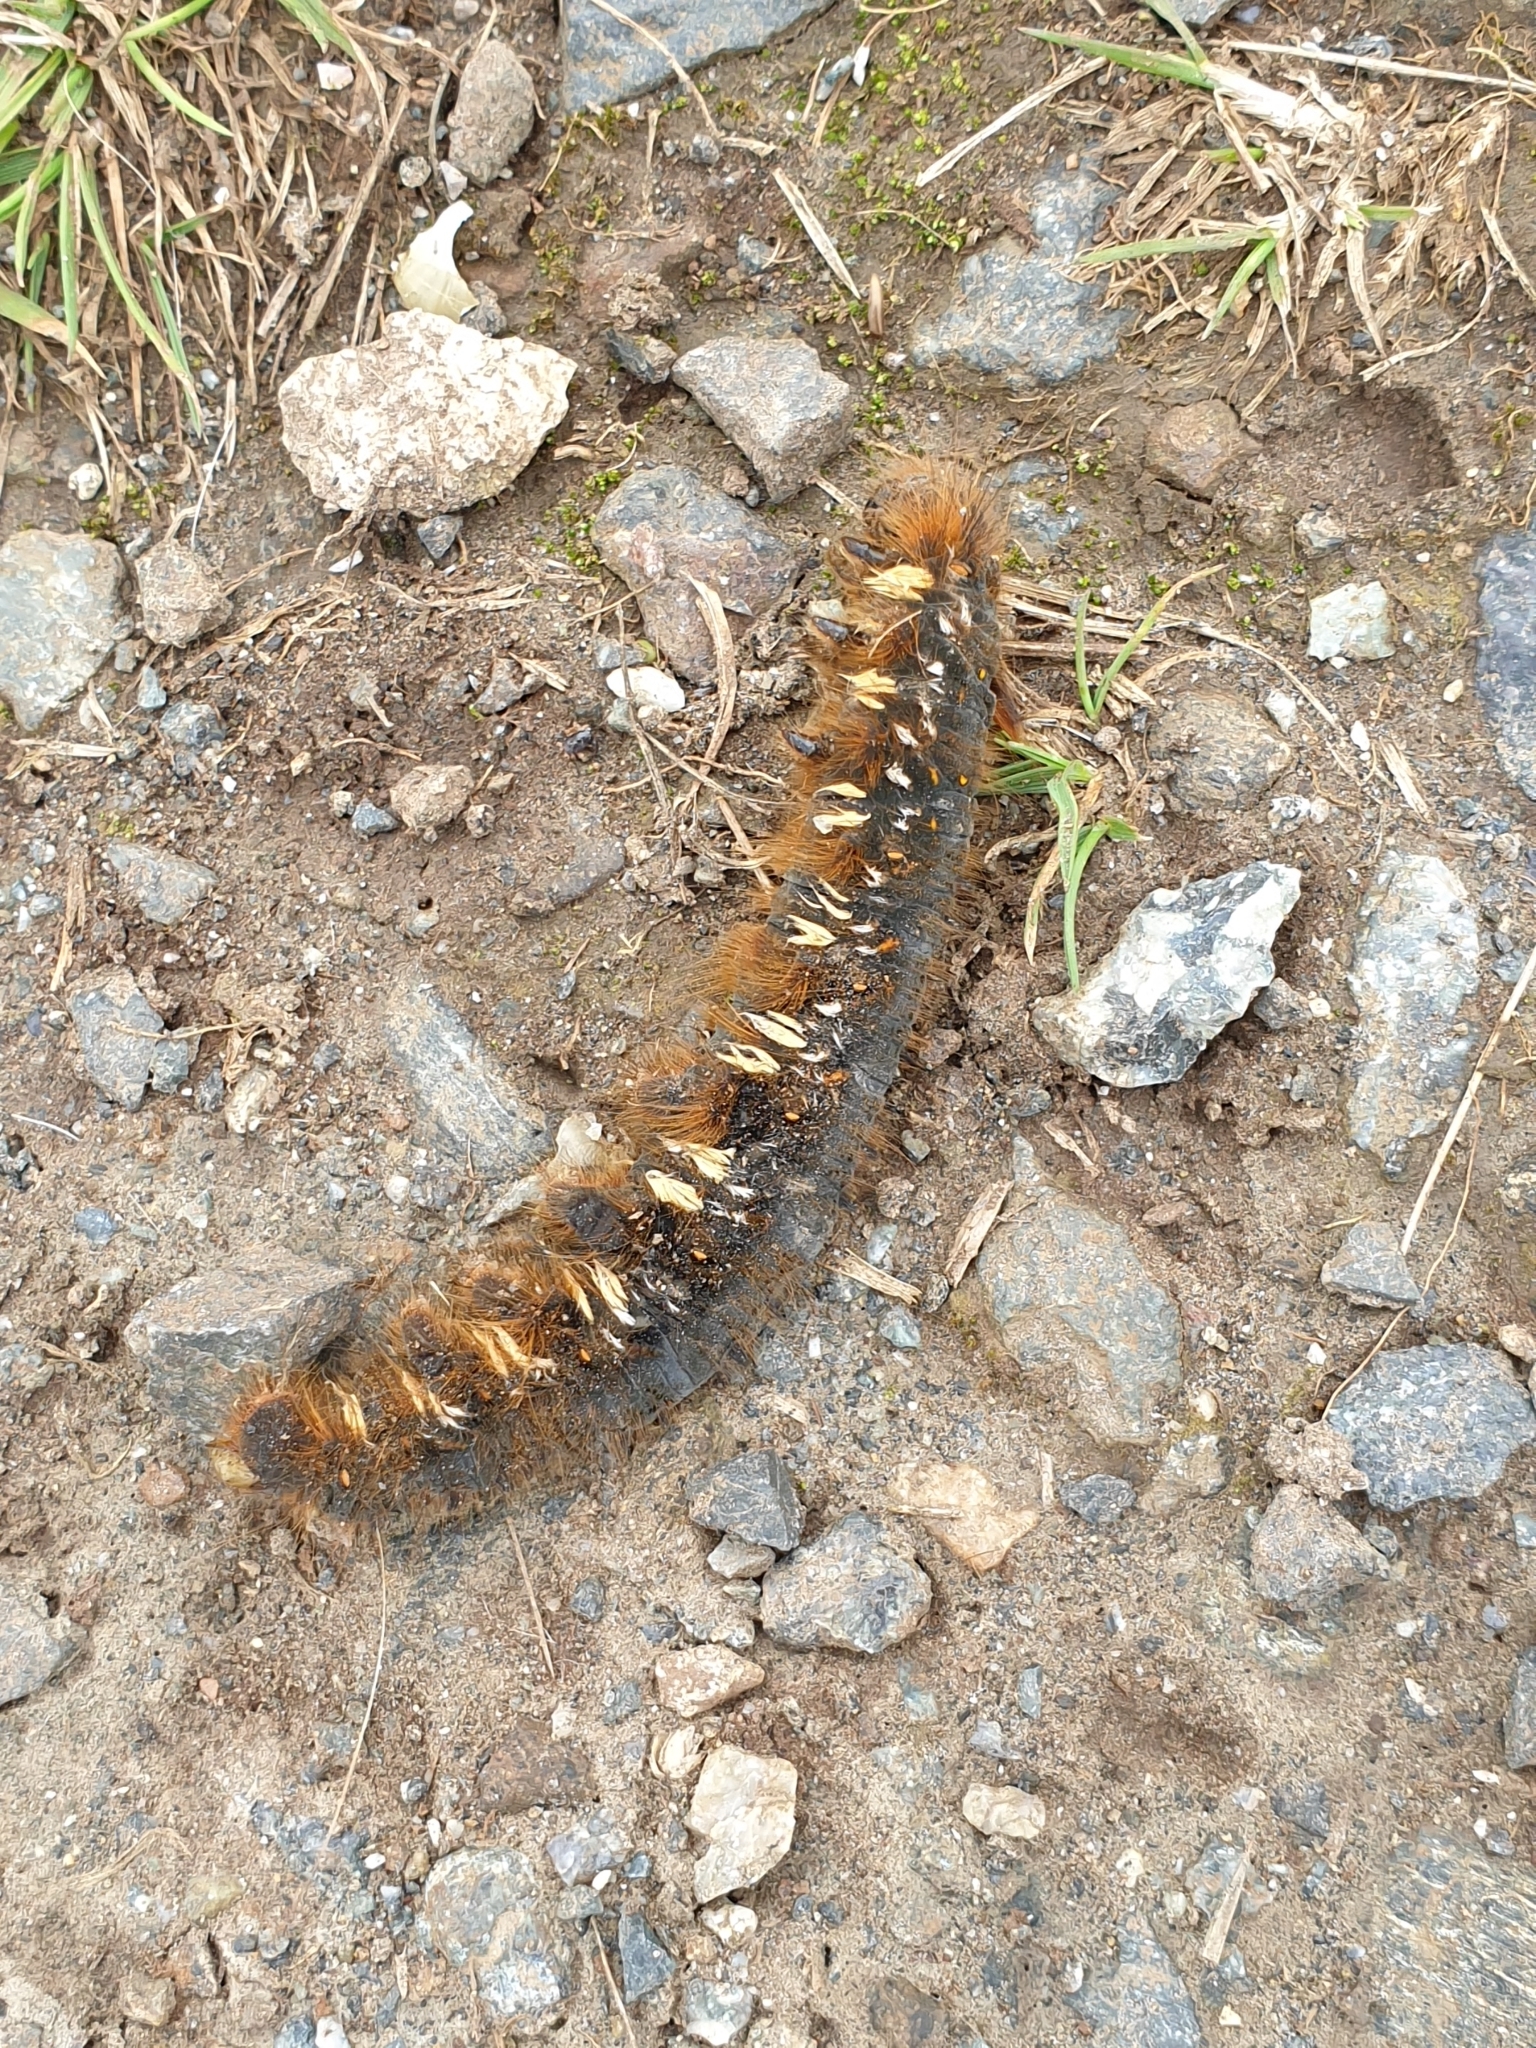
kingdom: Animalia
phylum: Arthropoda
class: Insecta
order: Lepidoptera
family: Lasiocampidae
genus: Euthrix
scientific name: Euthrix potatoria
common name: Drinker
